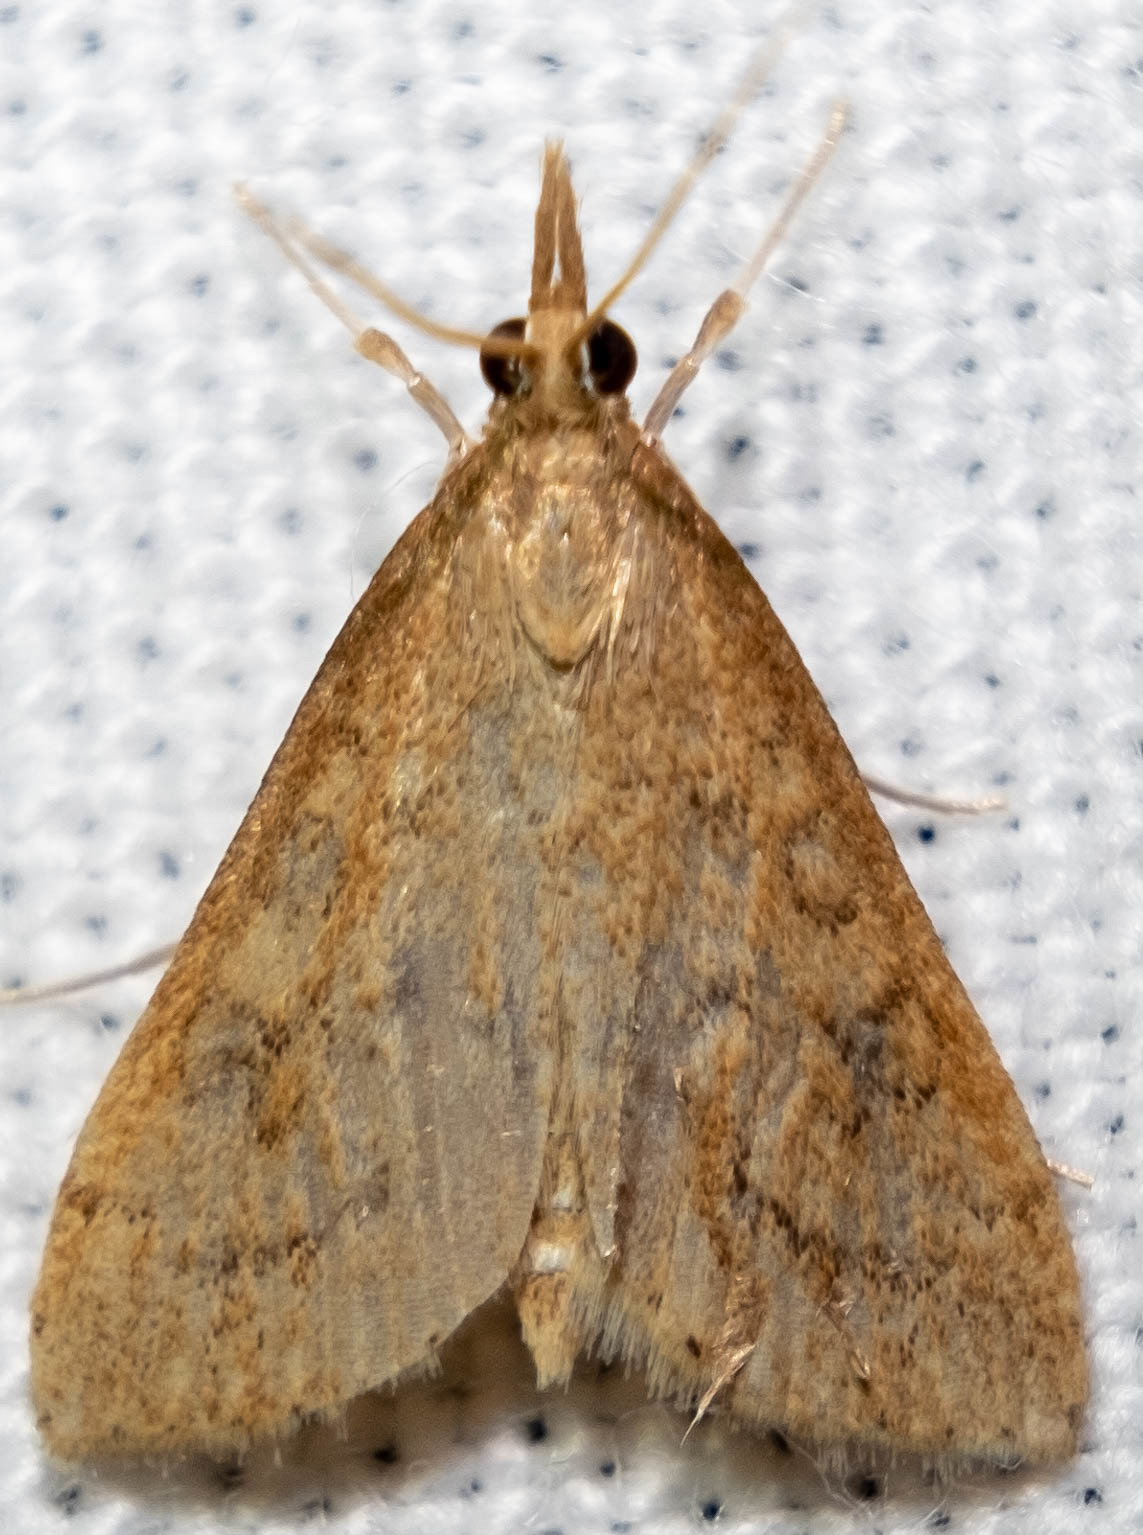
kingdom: Animalia
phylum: Arthropoda
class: Insecta
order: Lepidoptera
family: Crambidae
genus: Udea
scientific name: Udea rubigalis
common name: Celery leaftier moth
